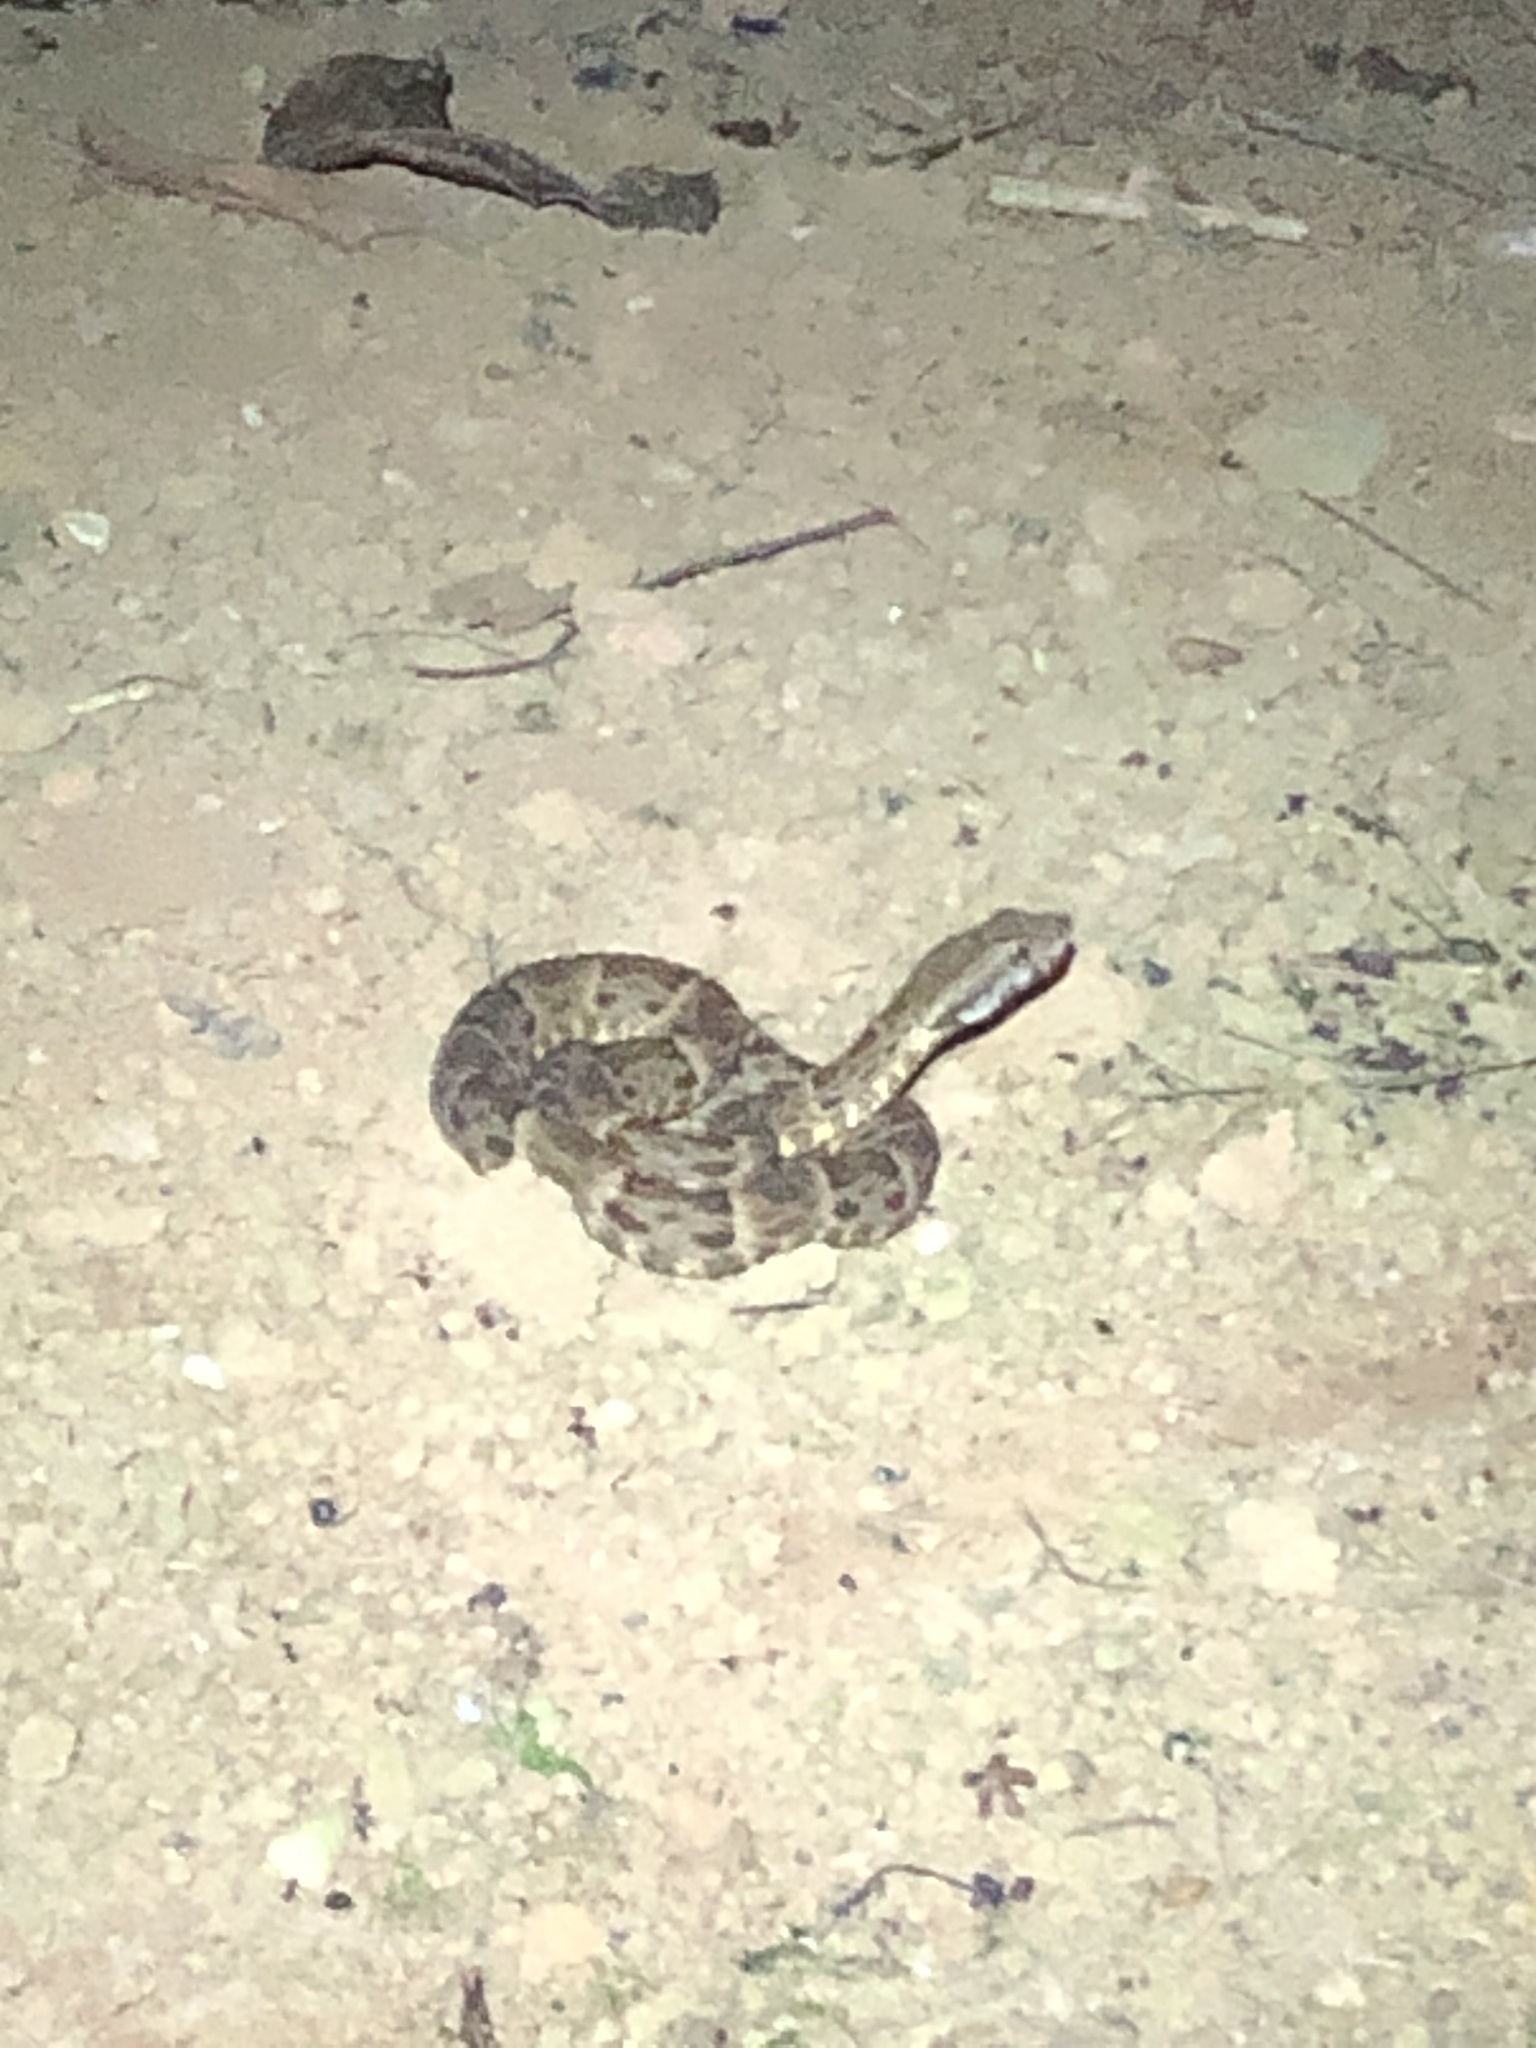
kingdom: Animalia
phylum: Chordata
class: Squamata
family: Viperidae
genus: Bothrops
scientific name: Bothrops atrox
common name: Common lancehead
